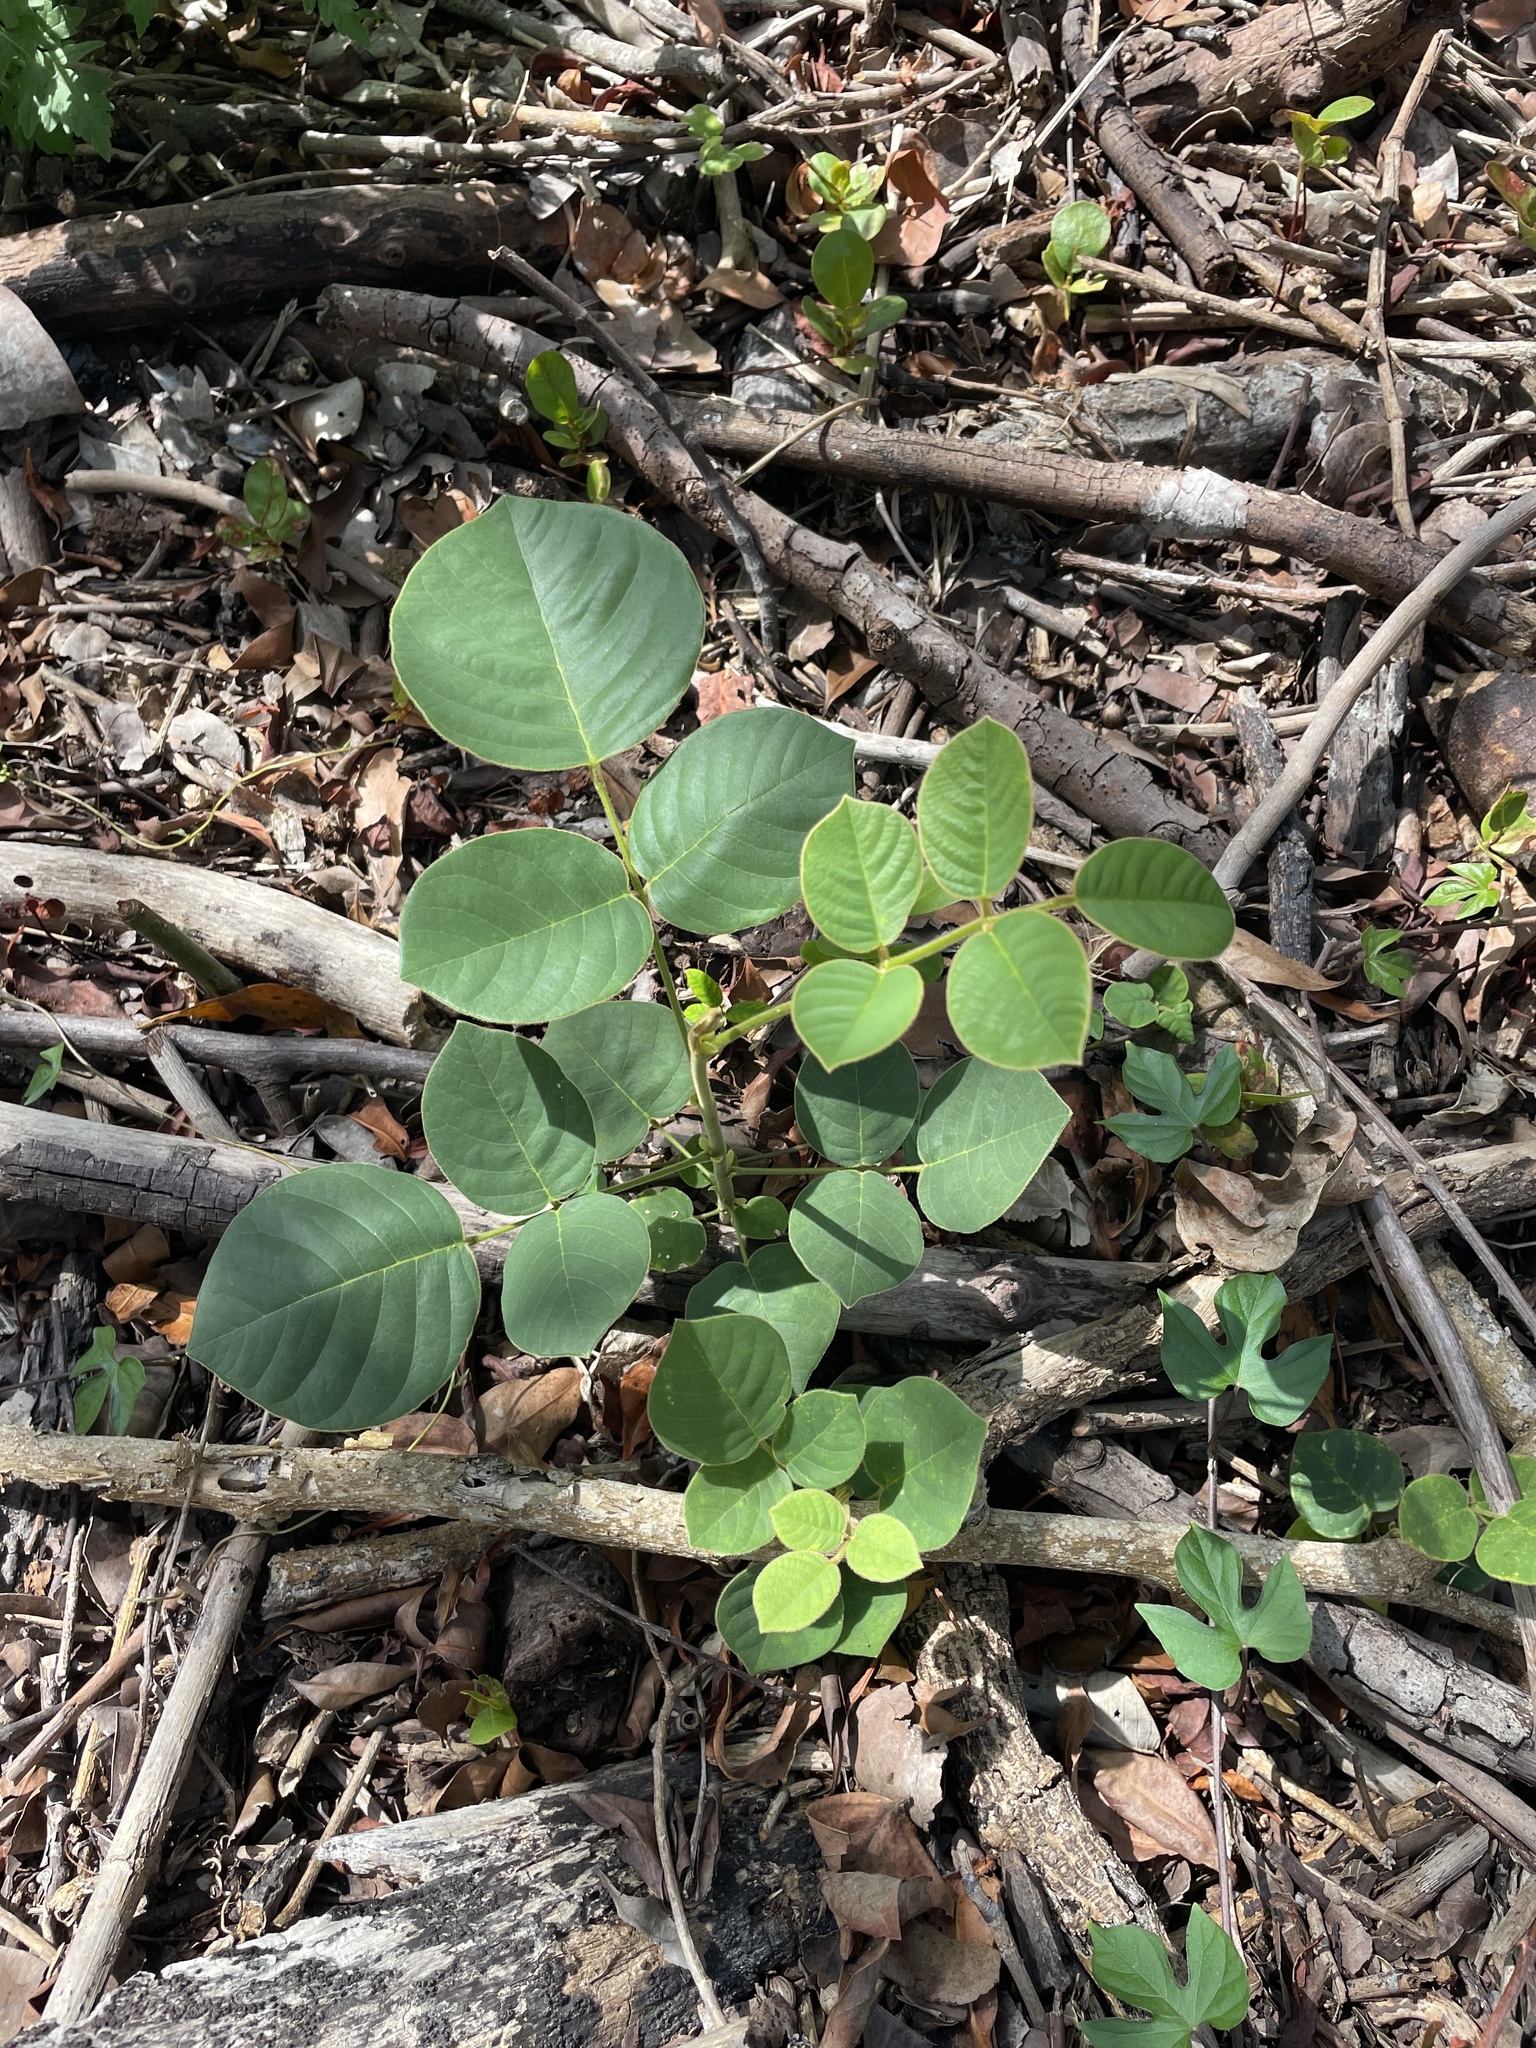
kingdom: Plantae
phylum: Tracheophyta
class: Magnoliopsida
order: Fabales
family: Fabaceae
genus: Piscidia
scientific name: Piscidia piscipula
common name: Florida fishpoison tree
